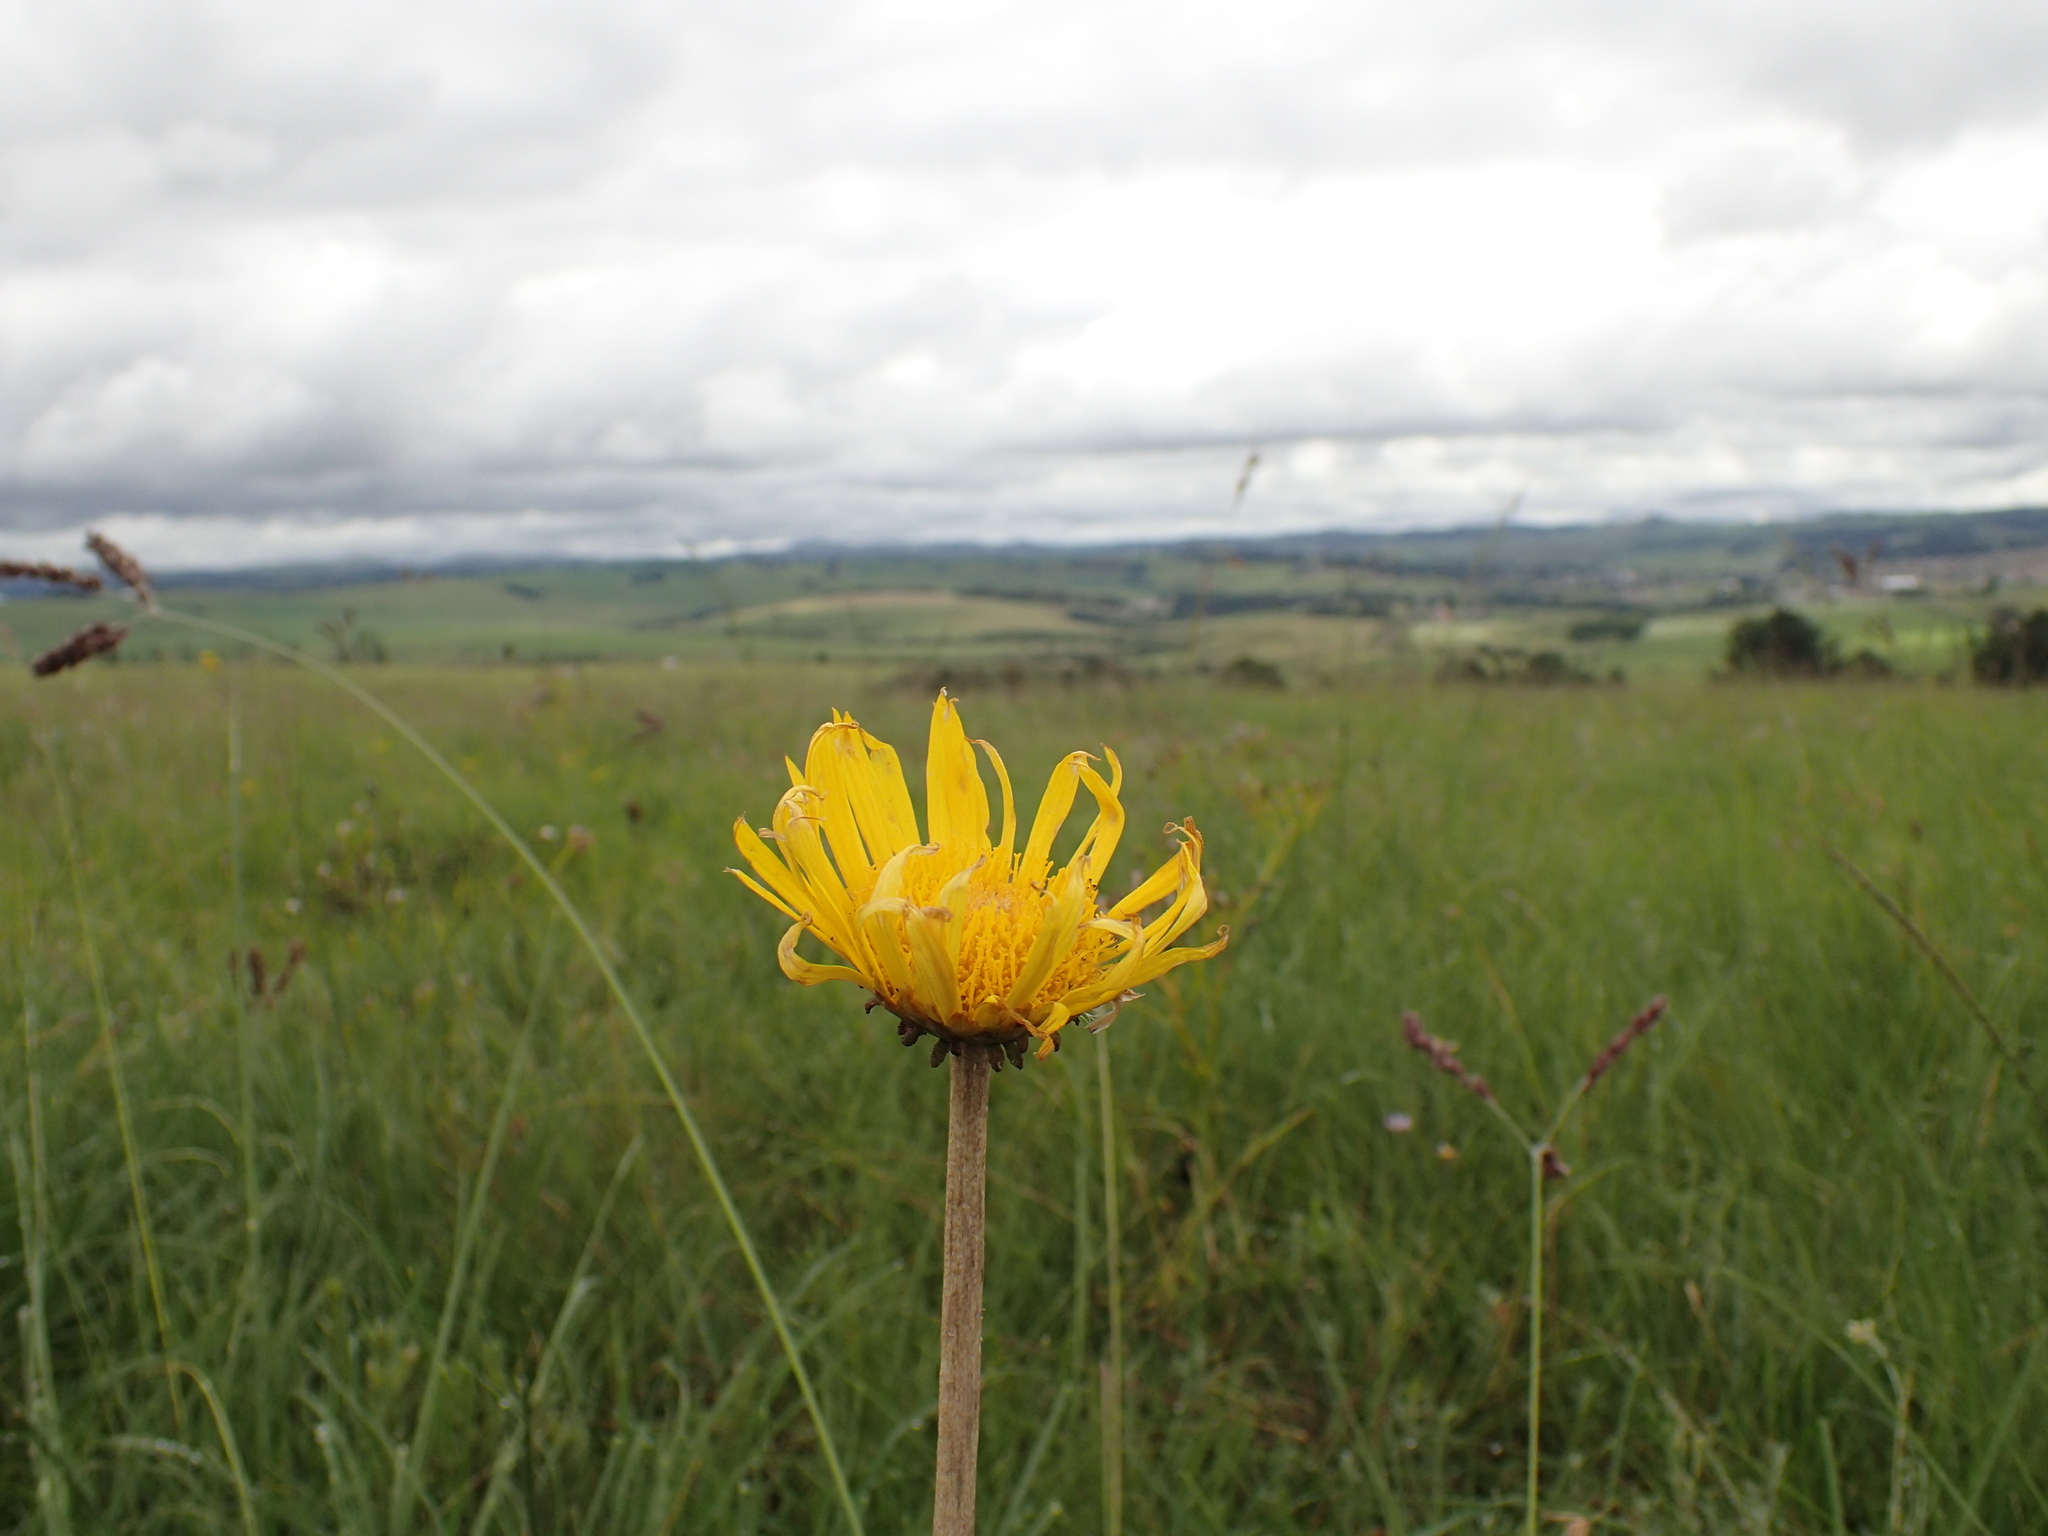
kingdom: Plantae
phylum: Tracheophyta
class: Magnoliopsida
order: Asterales
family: Asteraceae
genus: Haplocarpha
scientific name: Haplocarpha scaposa
